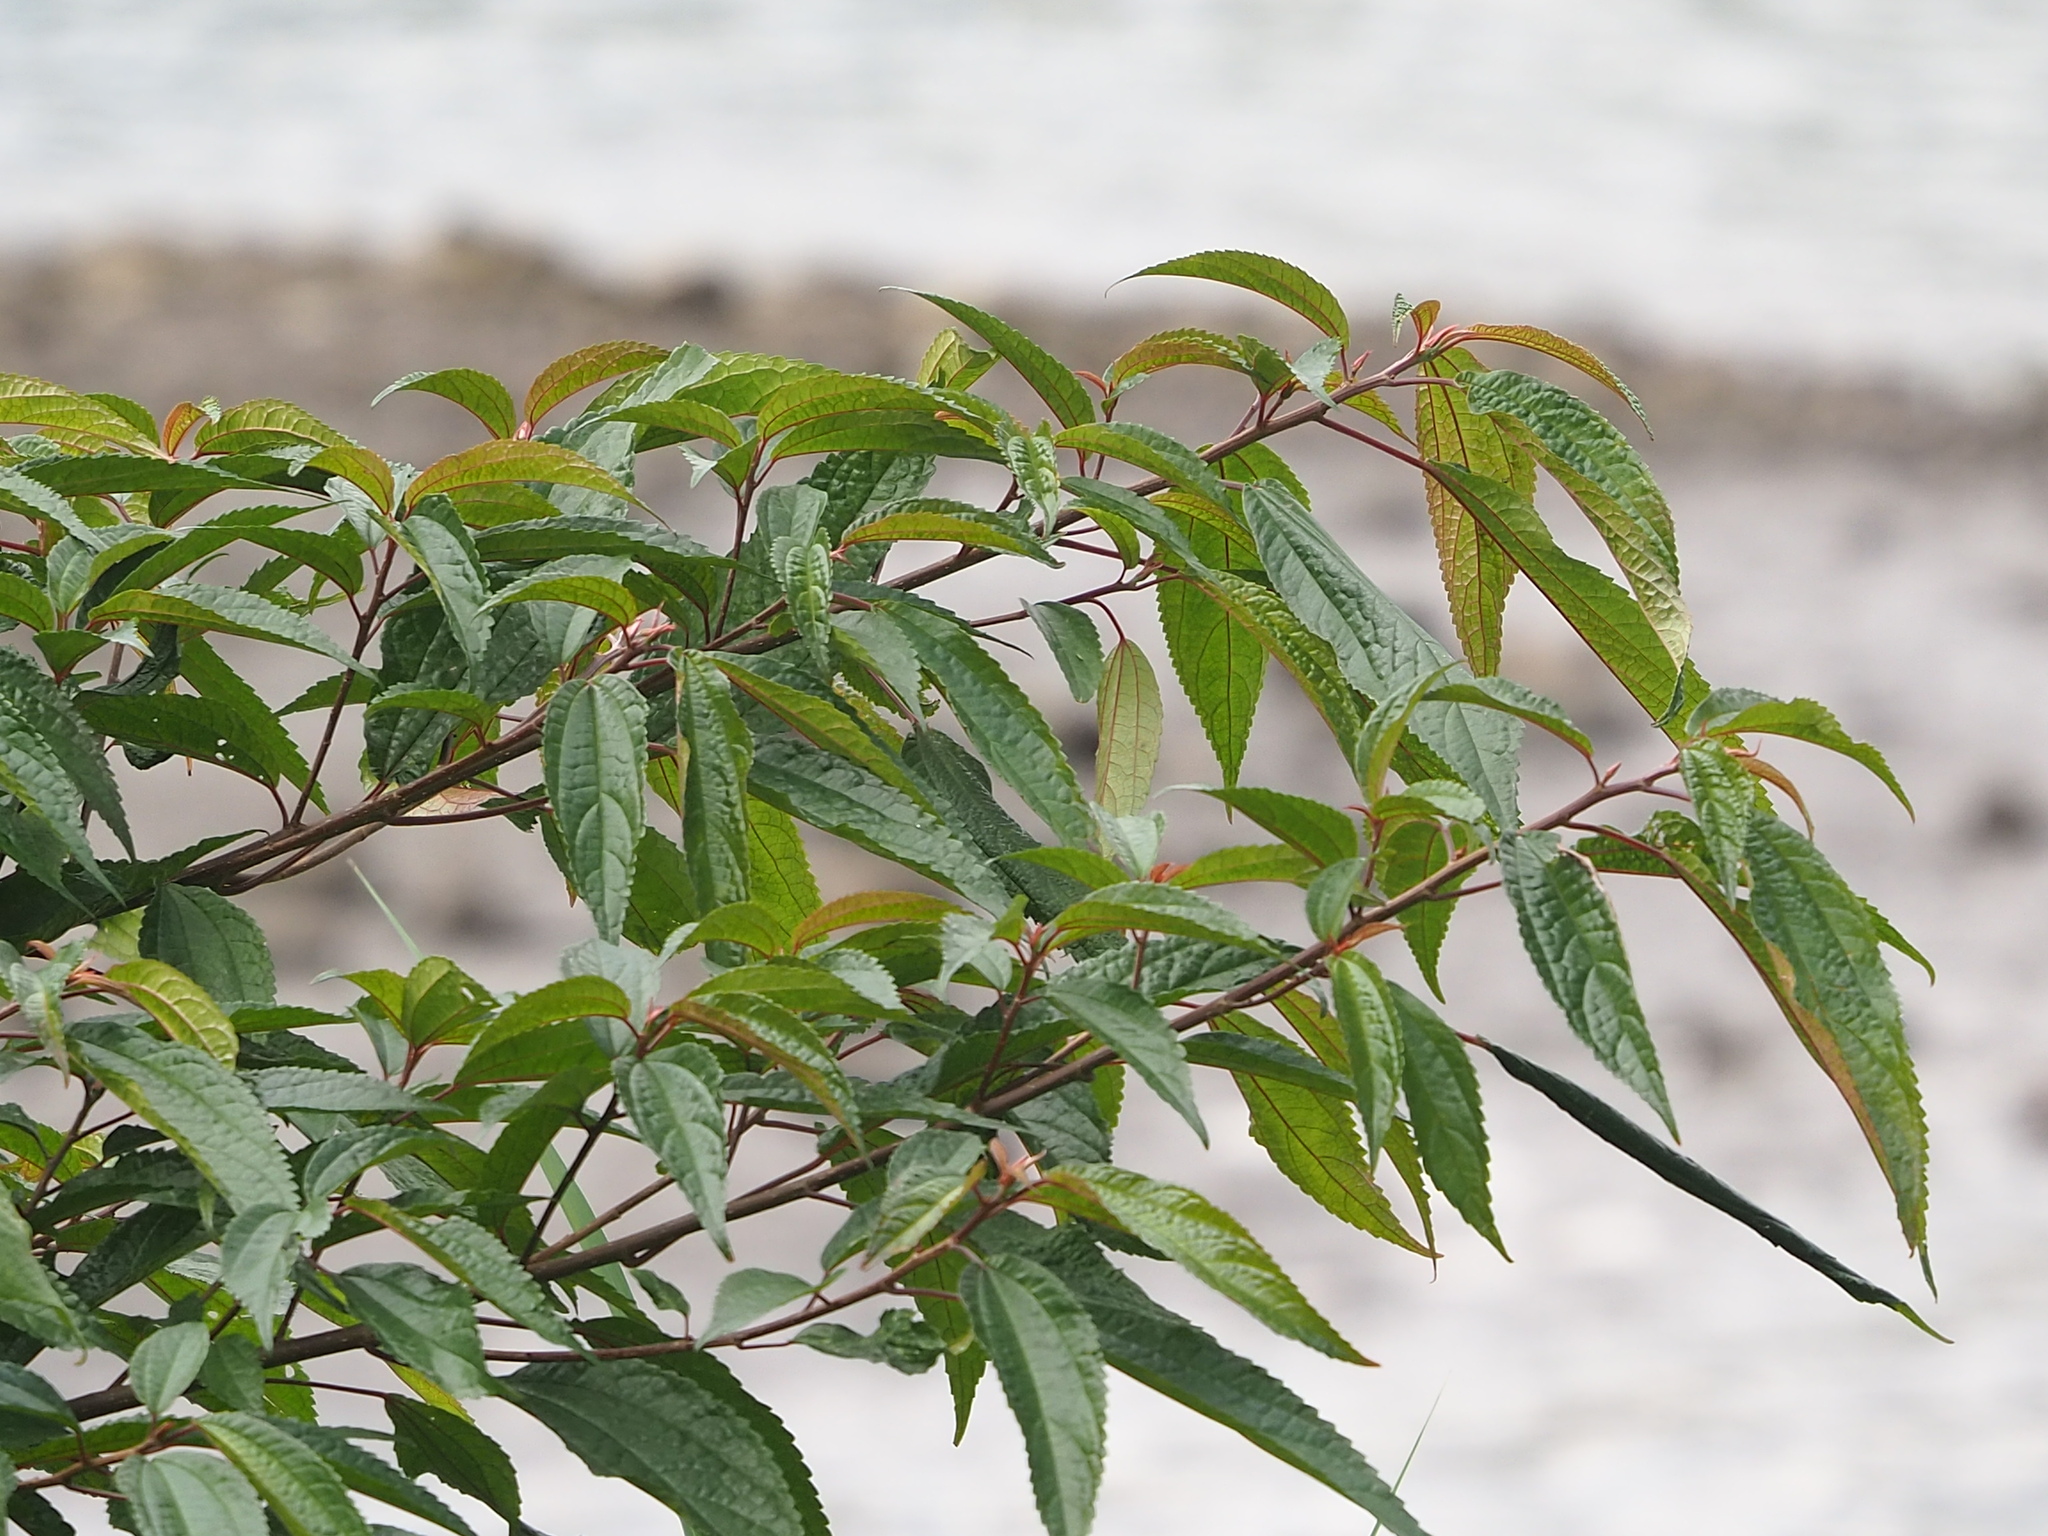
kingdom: Plantae
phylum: Tracheophyta
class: Magnoliopsida
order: Rosales
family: Urticaceae
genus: Oreocnide
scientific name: Oreocnide pedunculata
